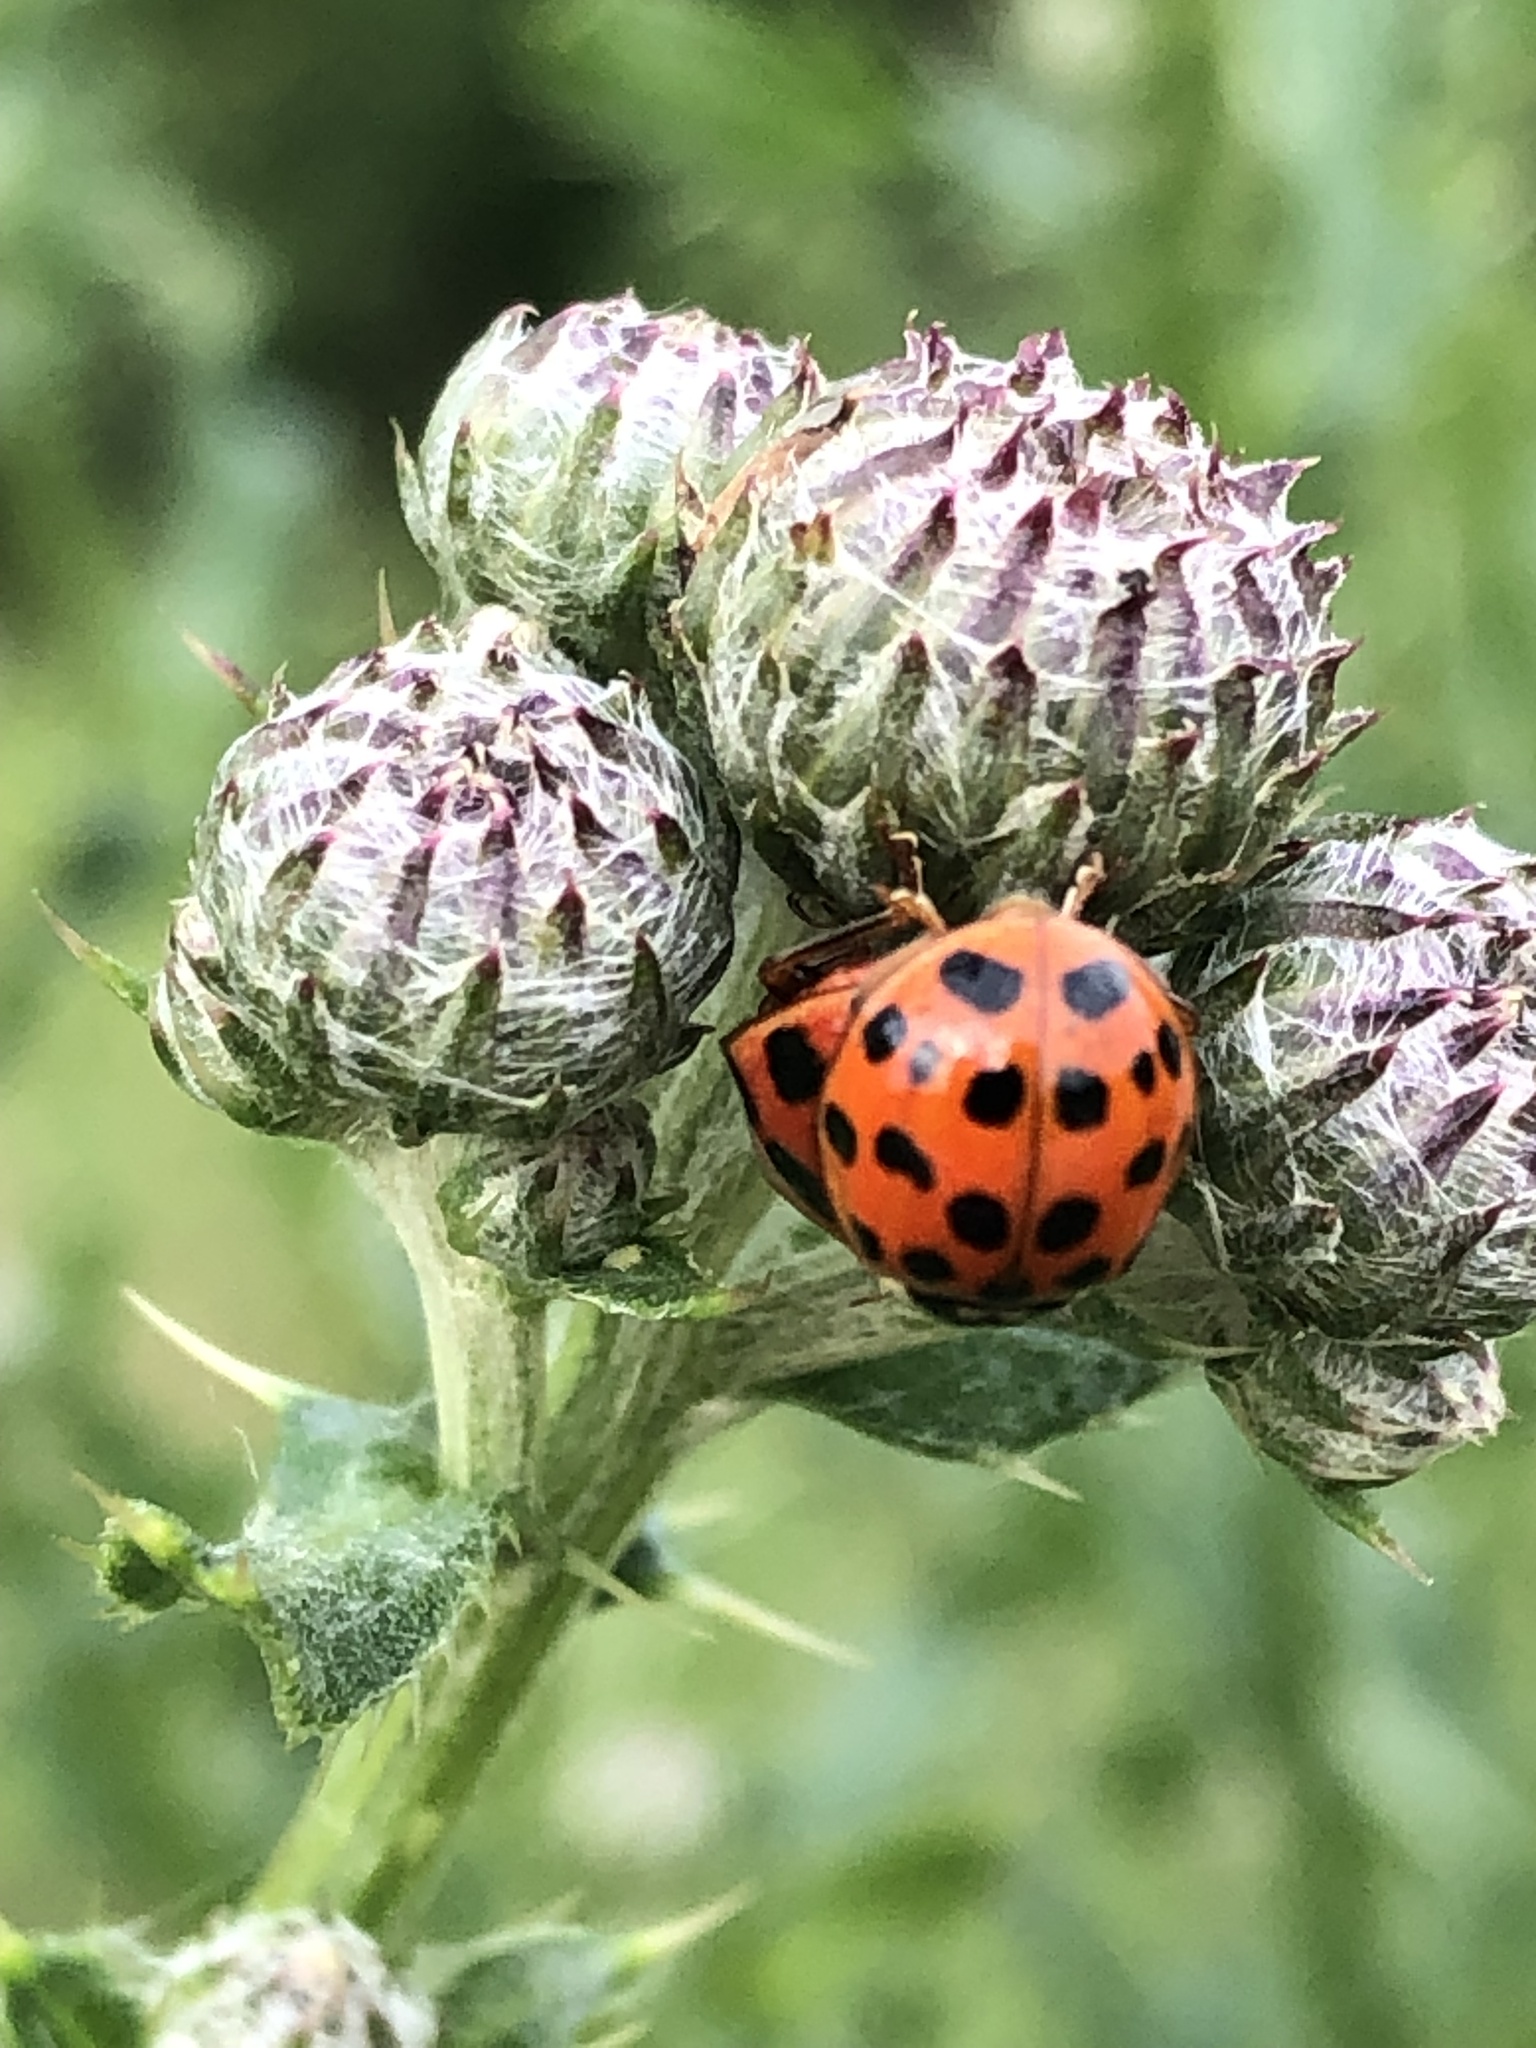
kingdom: Animalia
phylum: Arthropoda
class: Insecta
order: Coleoptera
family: Coccinellidae
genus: Harmonia
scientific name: Harmonia axyridis
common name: Harlequin ladybird
